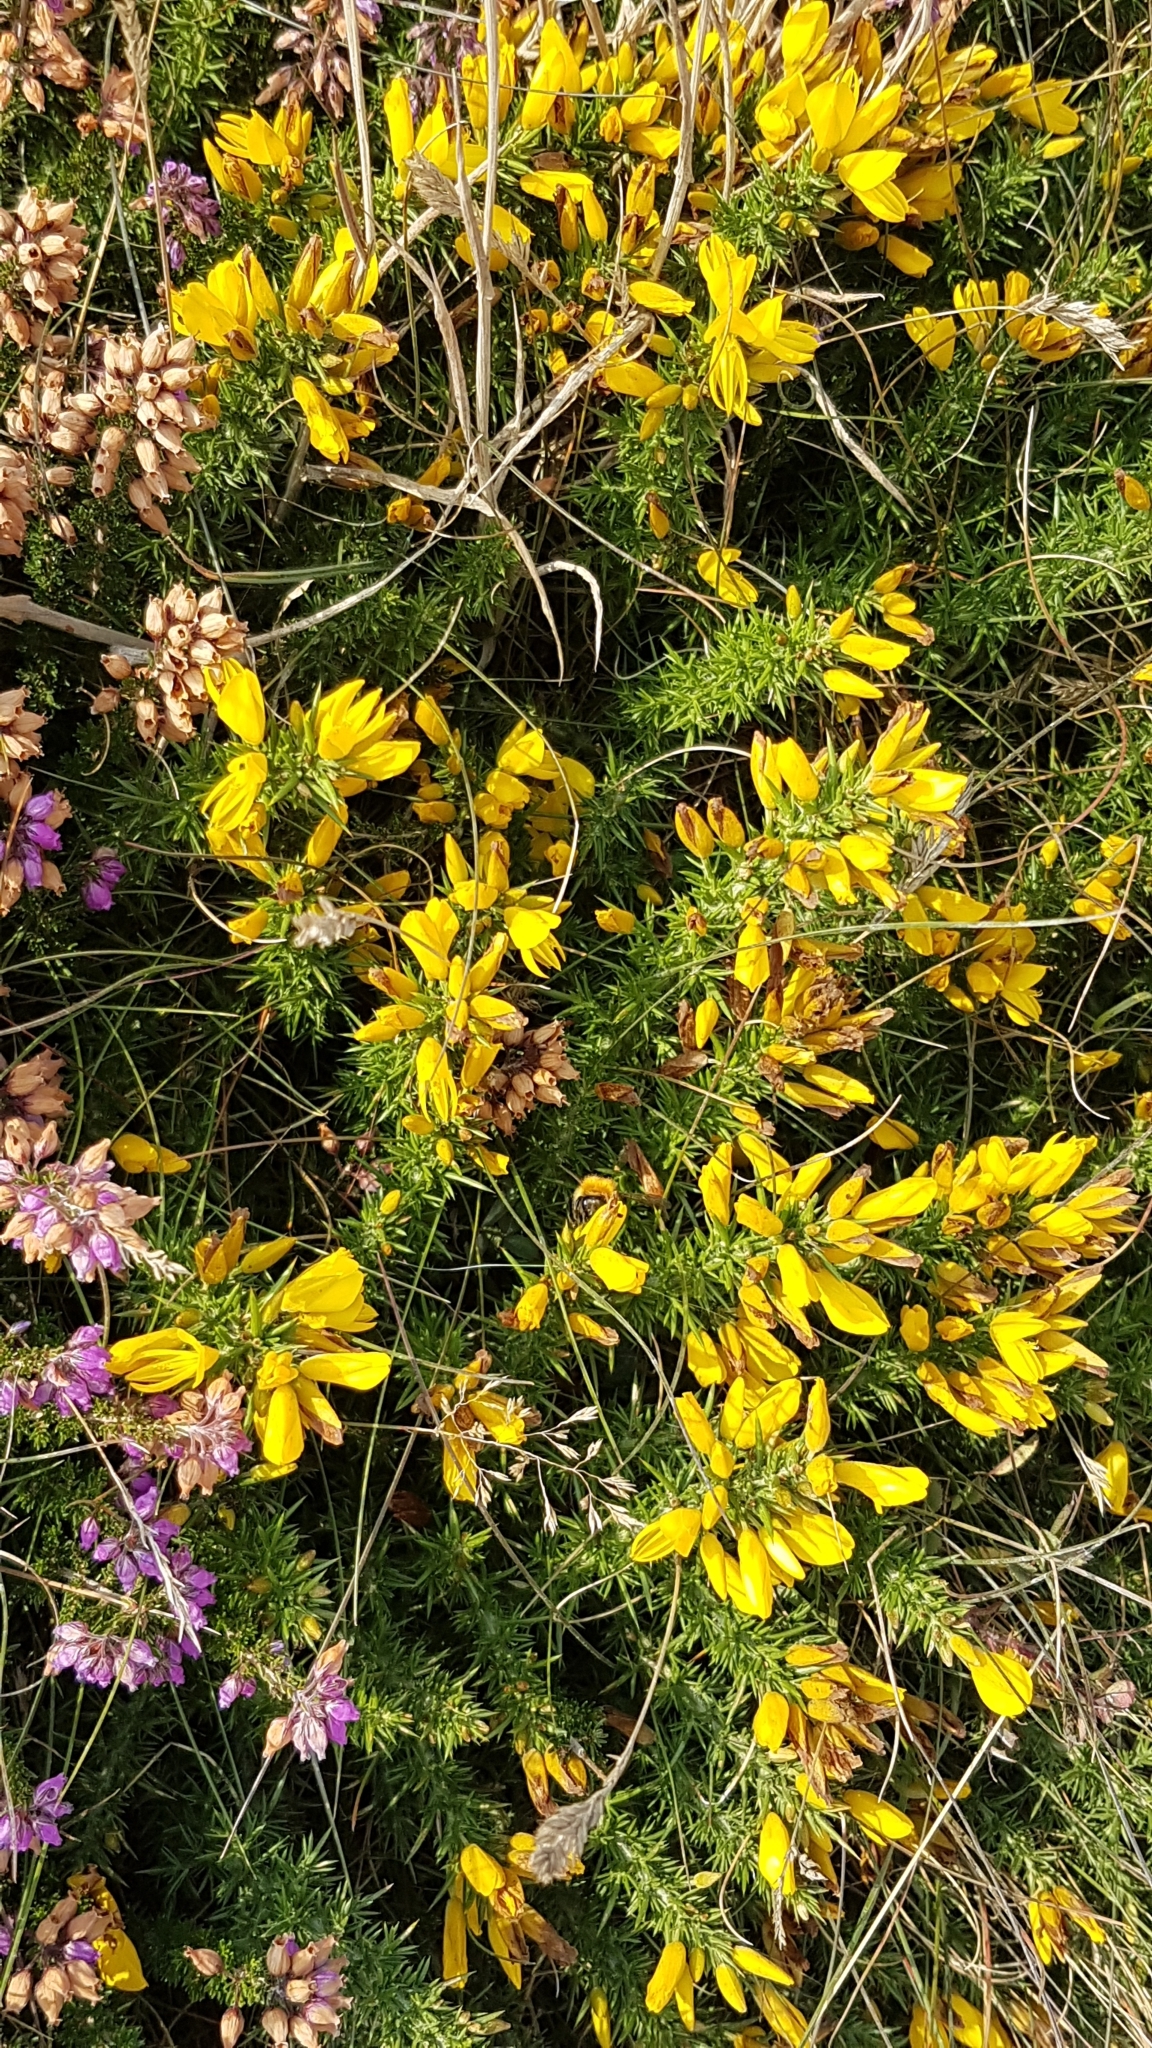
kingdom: Plantae
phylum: Tracheophyta
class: Magnoliopsida
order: Fabales
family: Fabaceae
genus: Ulex
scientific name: Ulex gallii
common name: Western gorse
